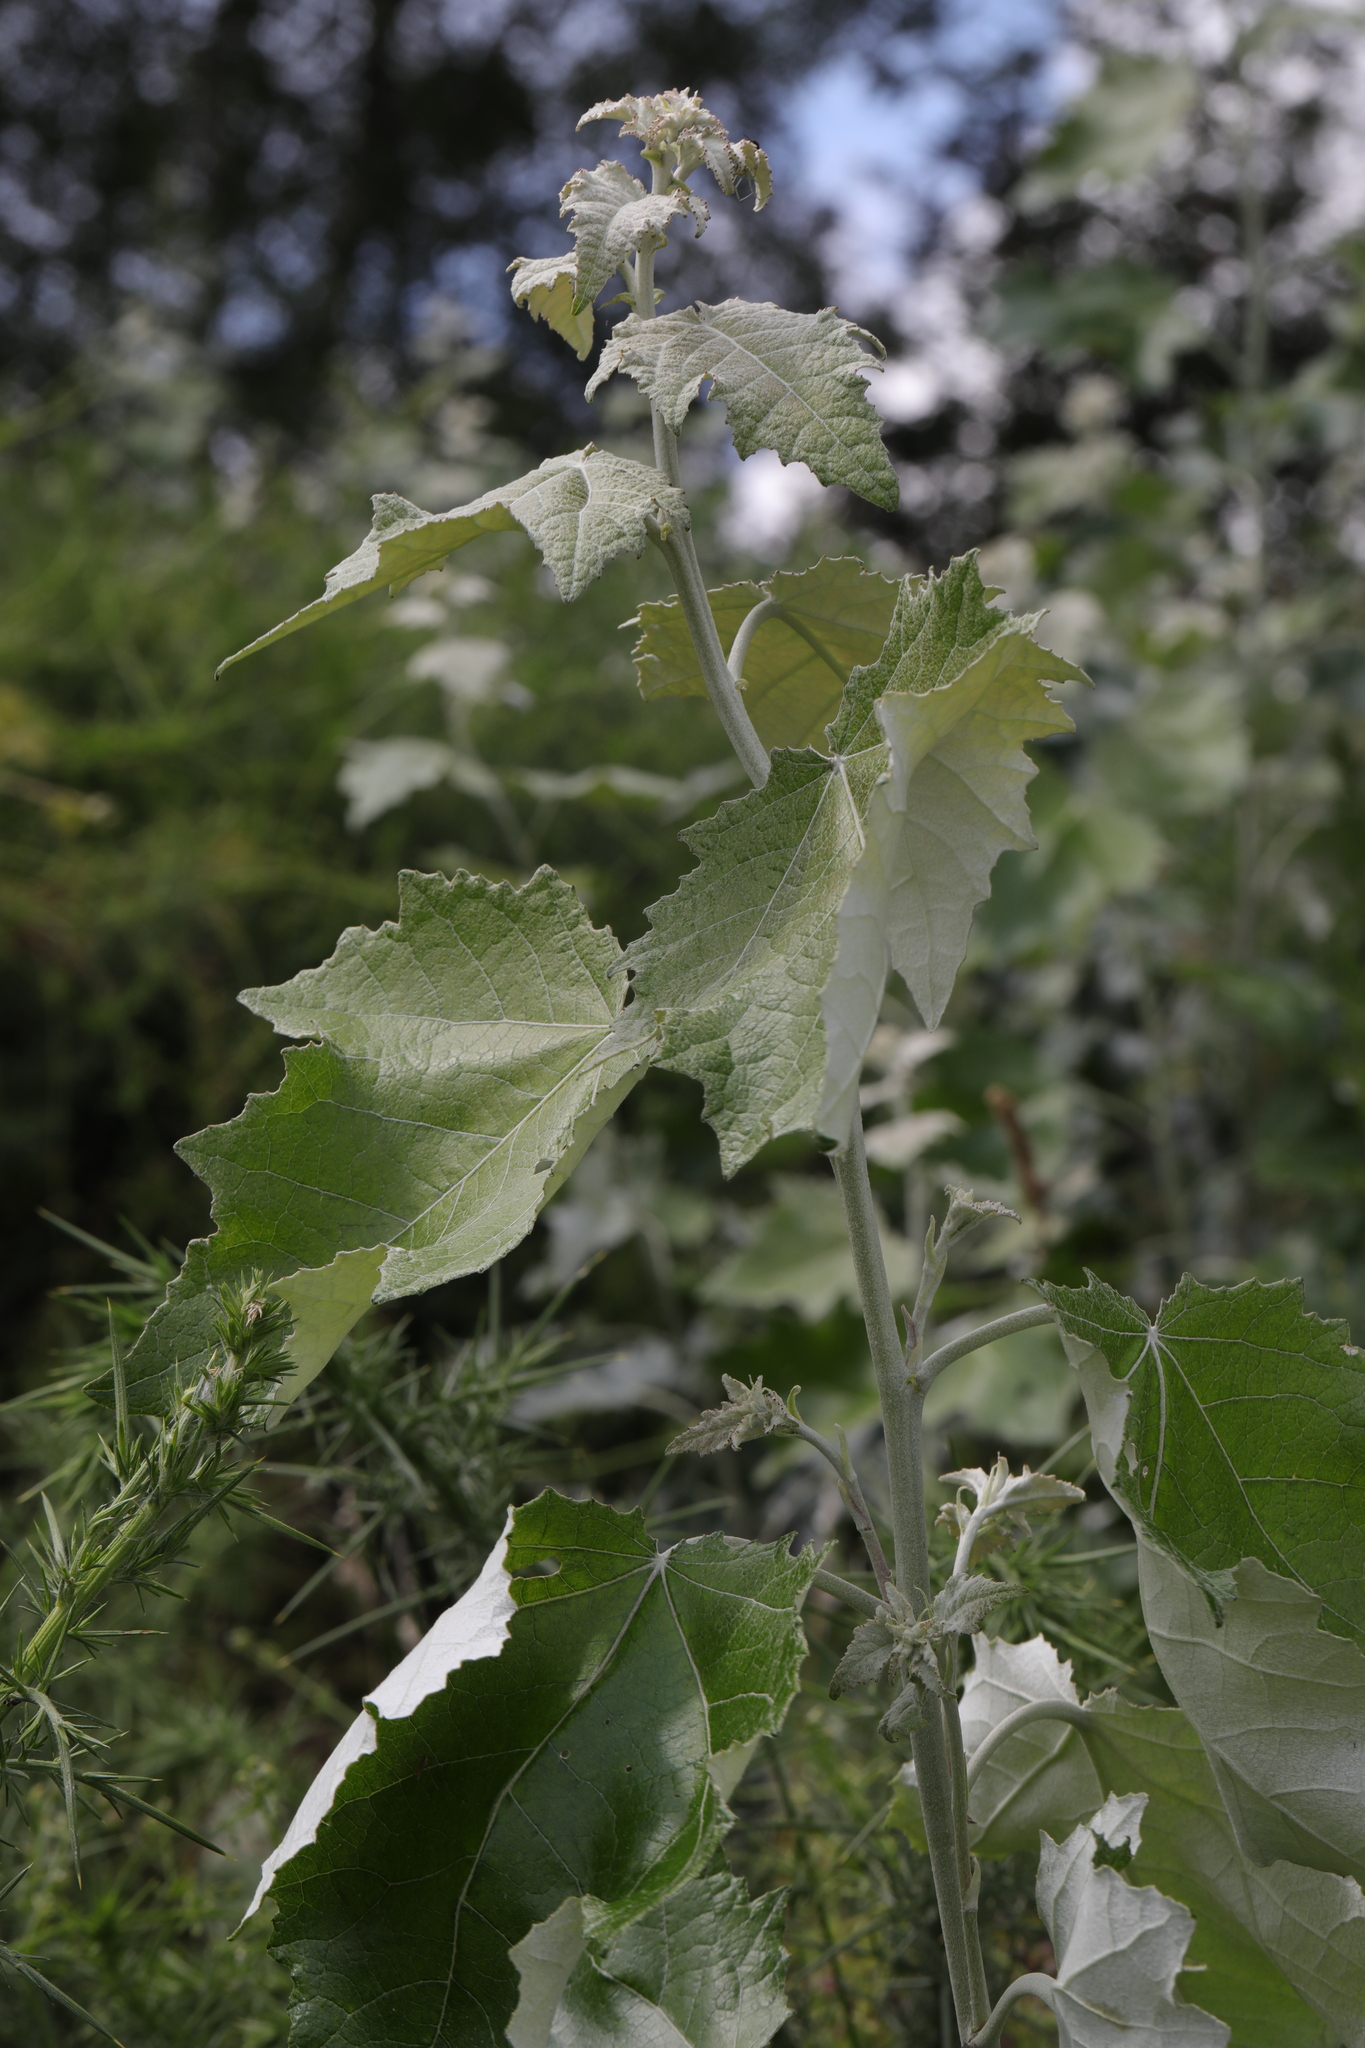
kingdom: Plantae
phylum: Tracheophyta
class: Magnoliopsida
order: Malpighiales
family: Salicaceae
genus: Populus
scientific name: Populus alba
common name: White poplar
